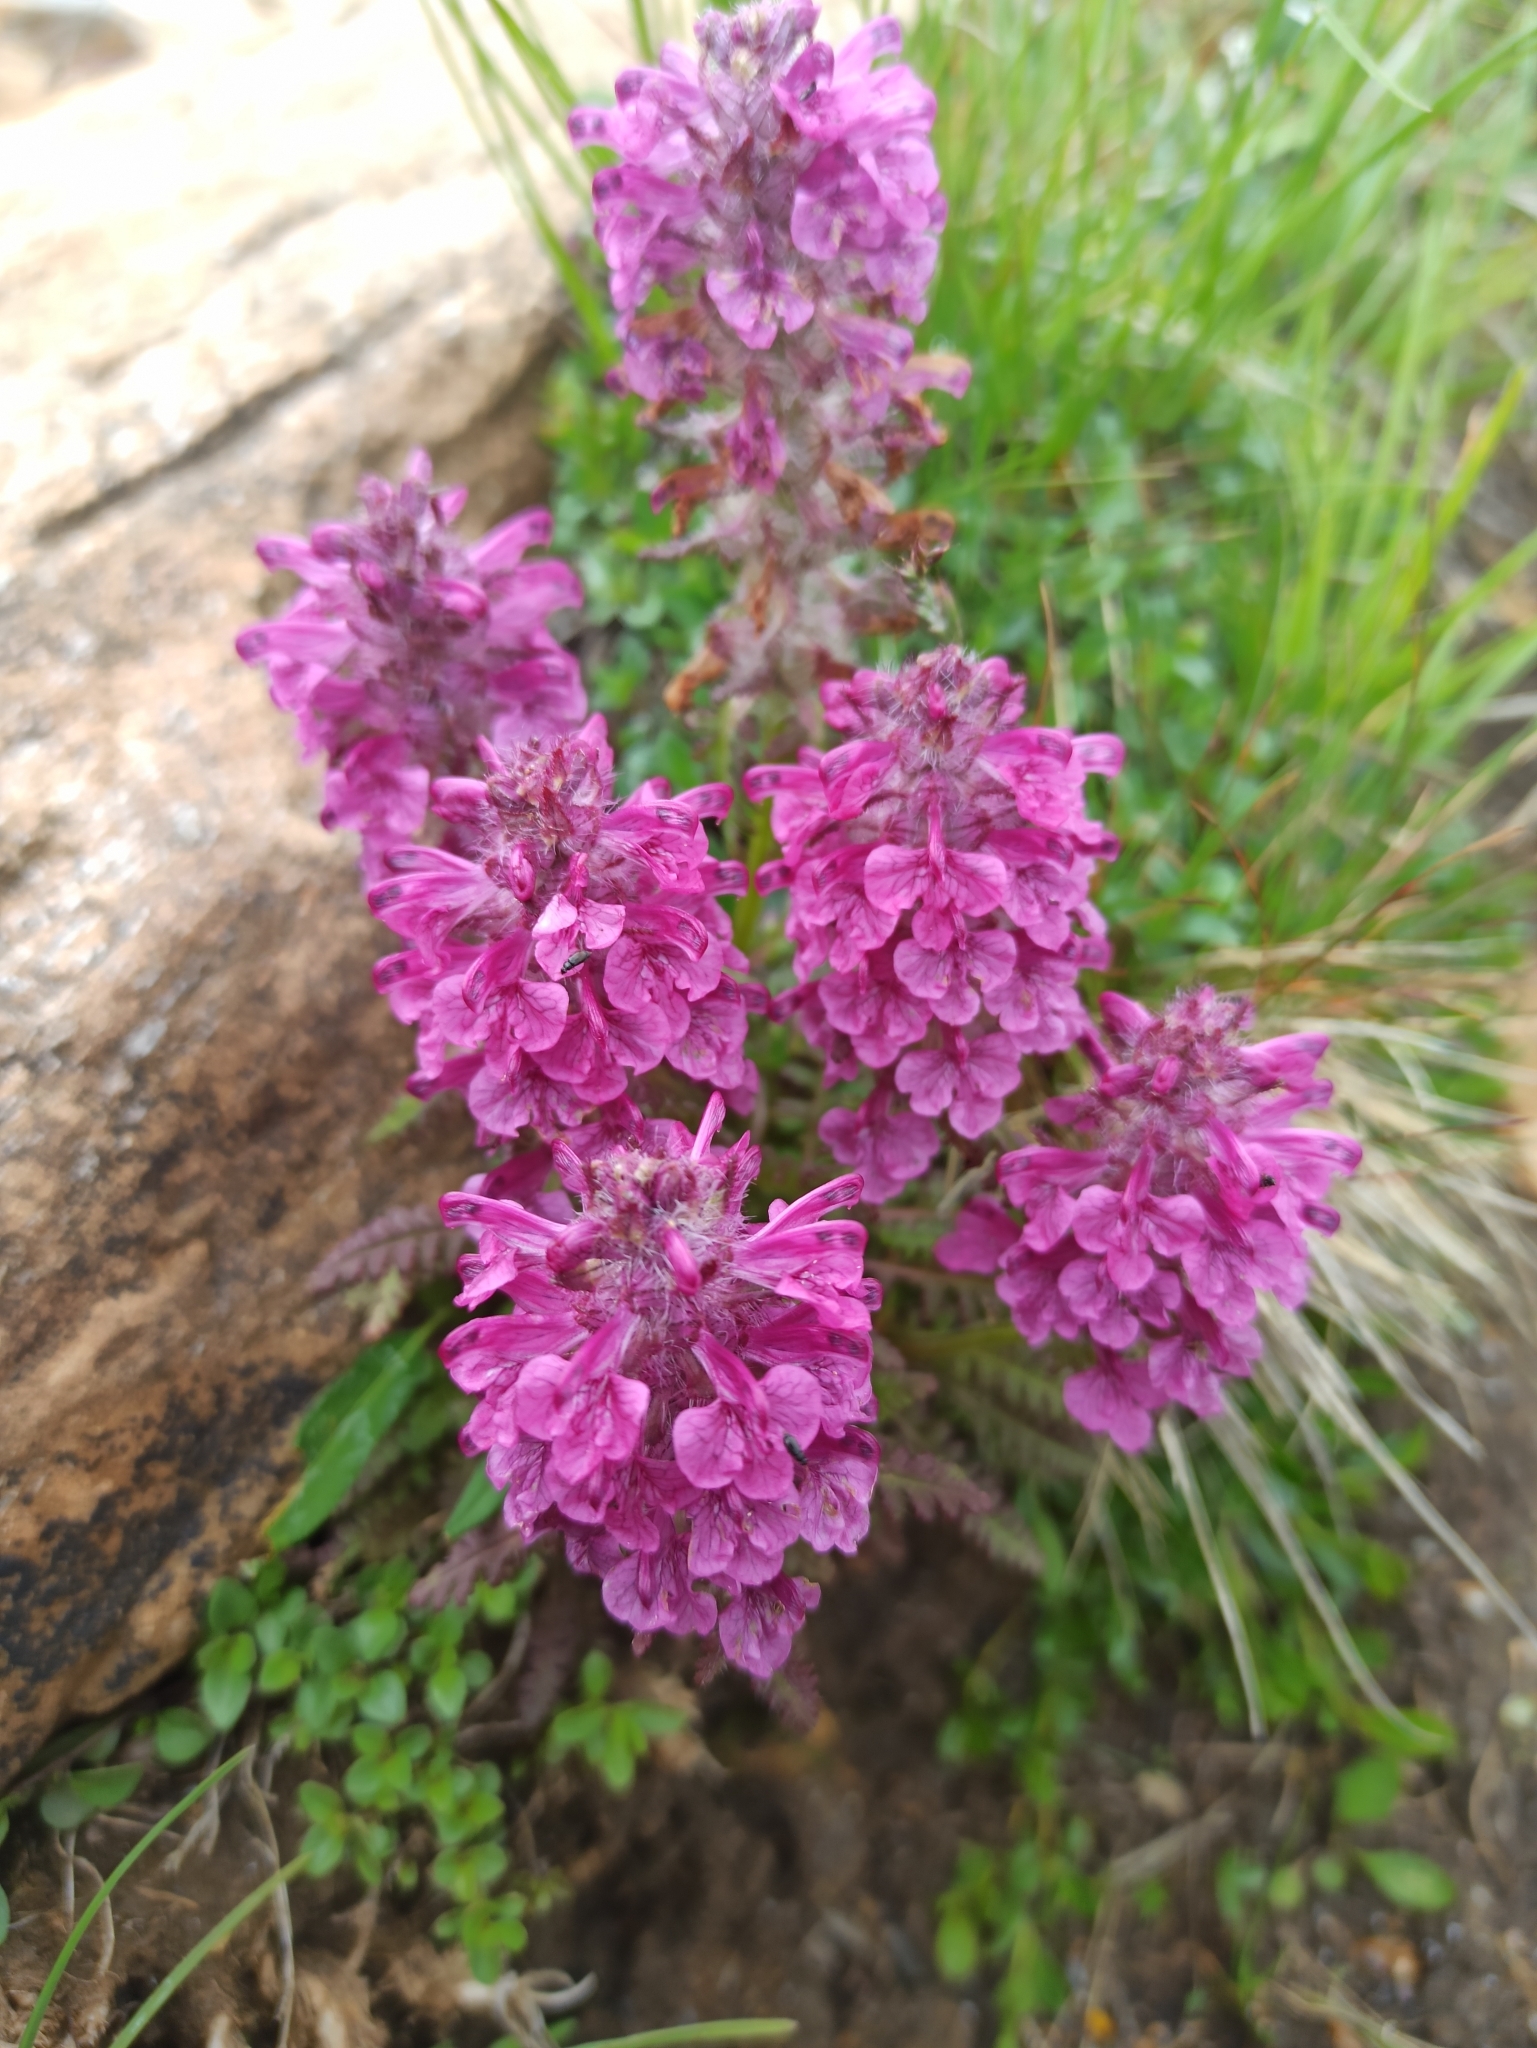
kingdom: Plantae
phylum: Tracheophyta
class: Magnoliopsida
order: Lamiales
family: Orobanchaceae
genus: Pedicularis
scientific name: Pedicularis verticillata
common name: Whorled lousewort
